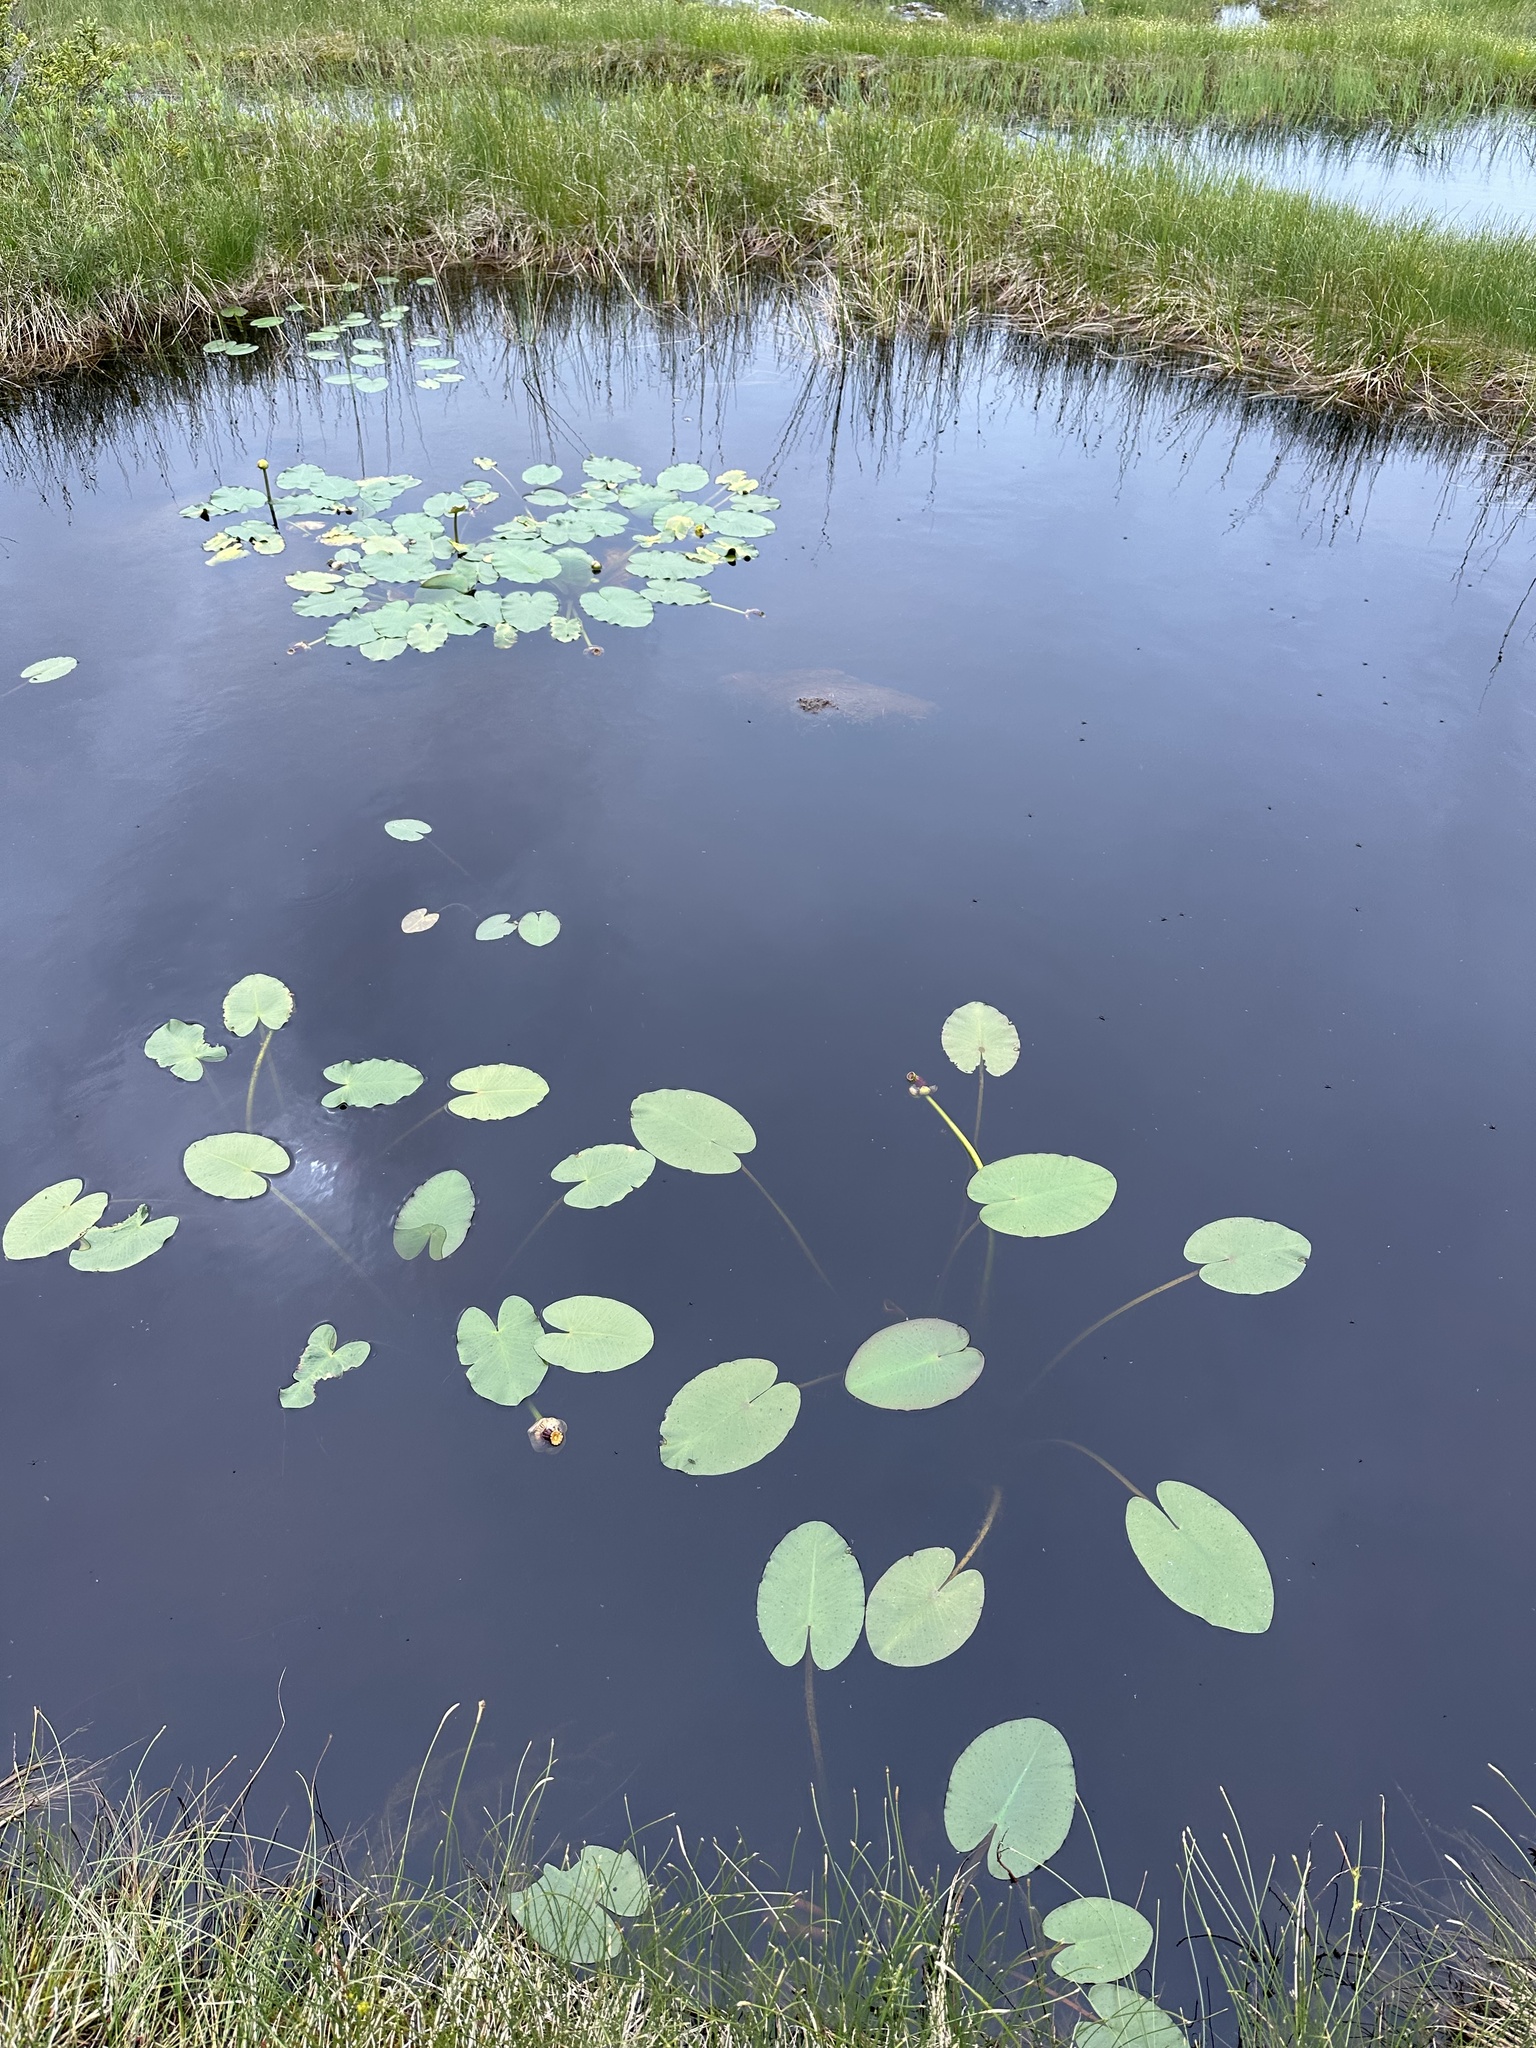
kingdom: Plantae
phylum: Tracheophyta
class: Magnoliopsida
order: Nymphaeales
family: Nymphaeaceae
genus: Nuphar
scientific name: Nuphar variegata
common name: Beaver-root
